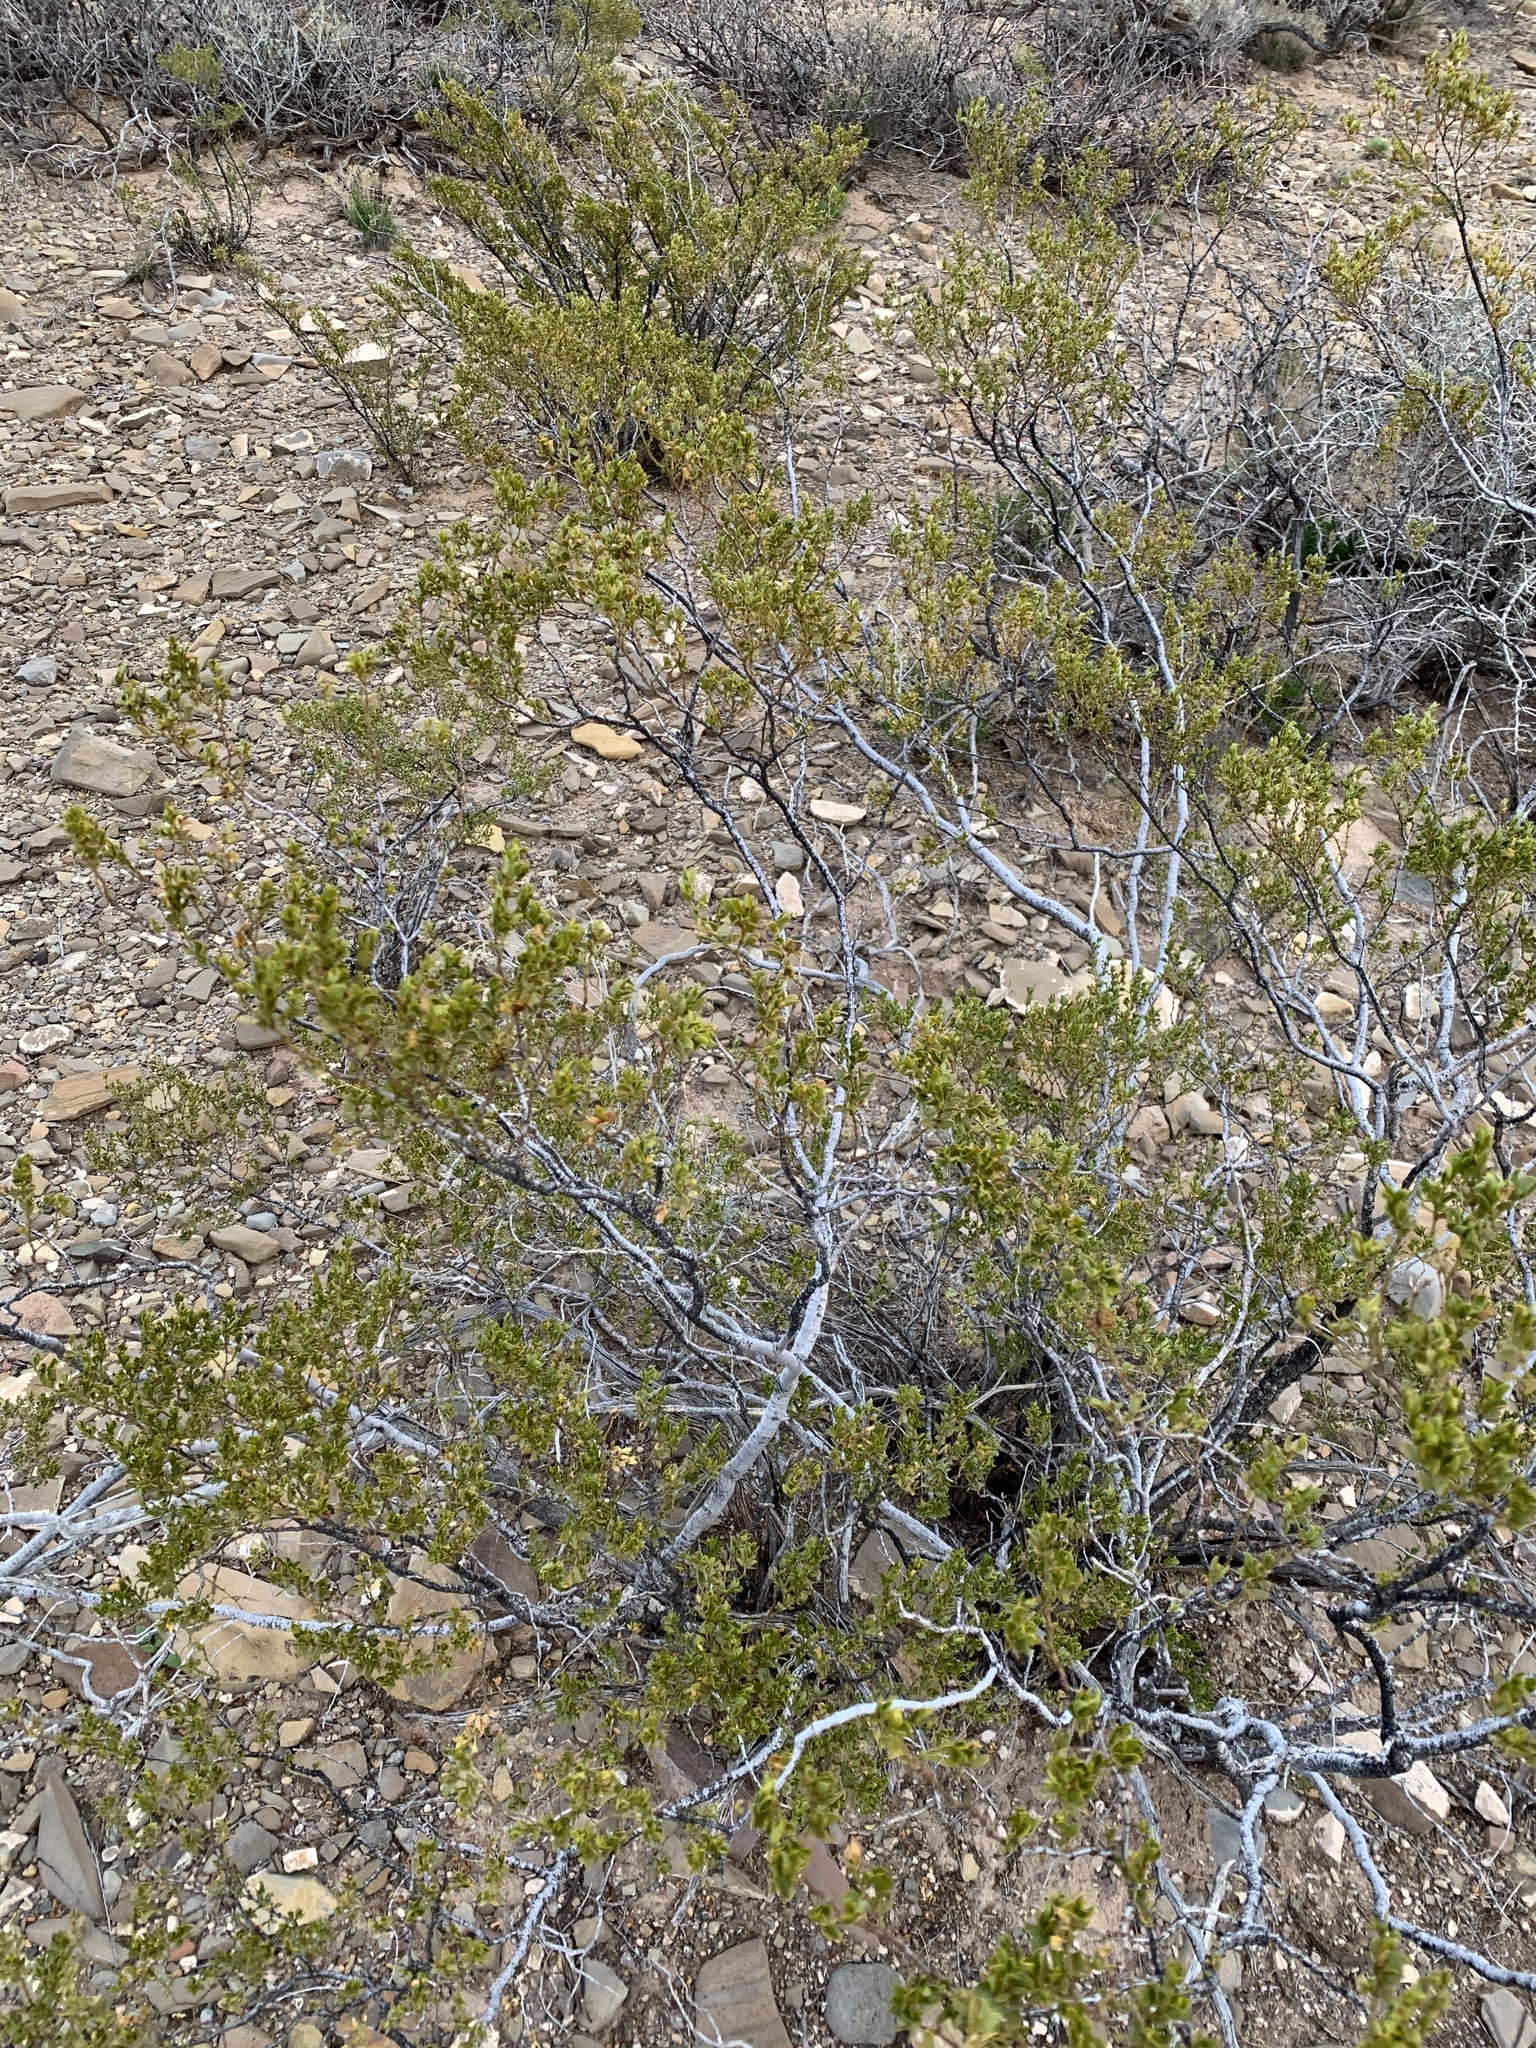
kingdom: Plantae
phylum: Tracheophyta
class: Magnoliopsida
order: Zygophyllales
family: Zygophyllaceae
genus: Larrea
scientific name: Larrea tridentata
